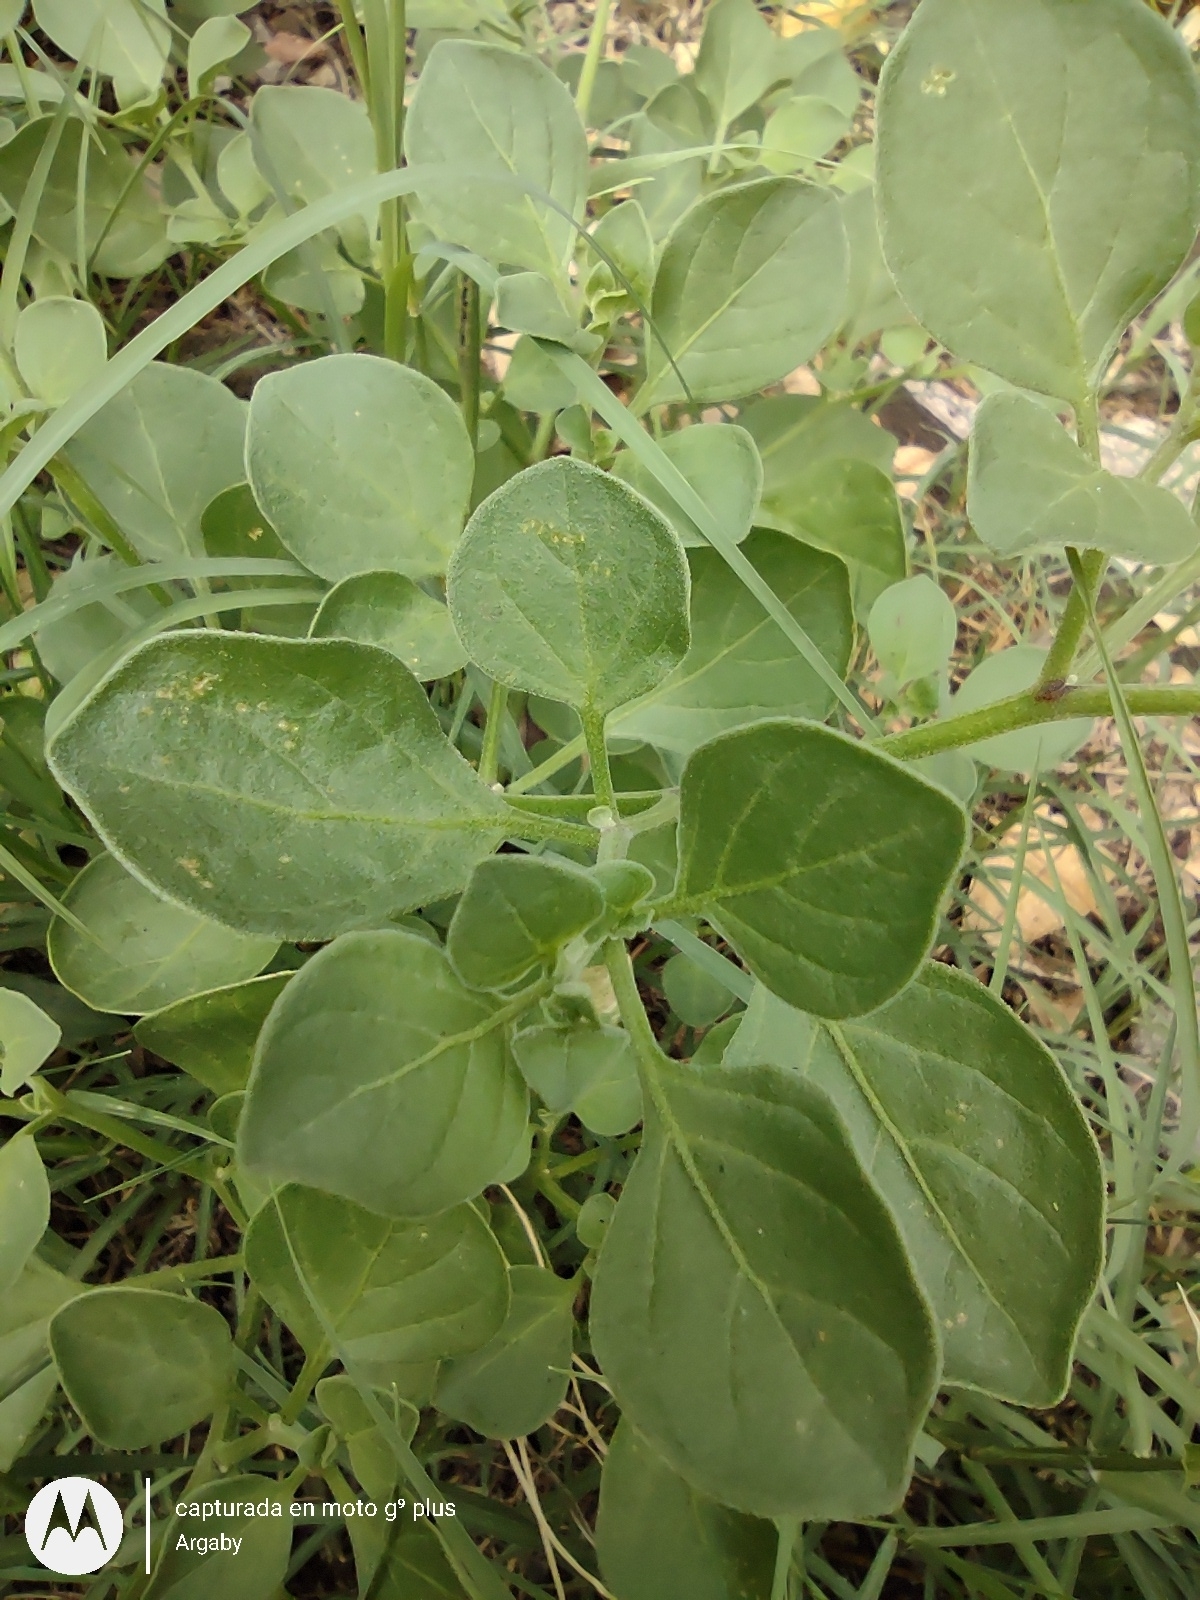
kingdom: Plantae
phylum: Tracheophyta
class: Magnoliopsida
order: Solanales
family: Solanaceae
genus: Salpichroa
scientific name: Salpichroa origanifolia
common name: Lily-of-the-valley-vine
